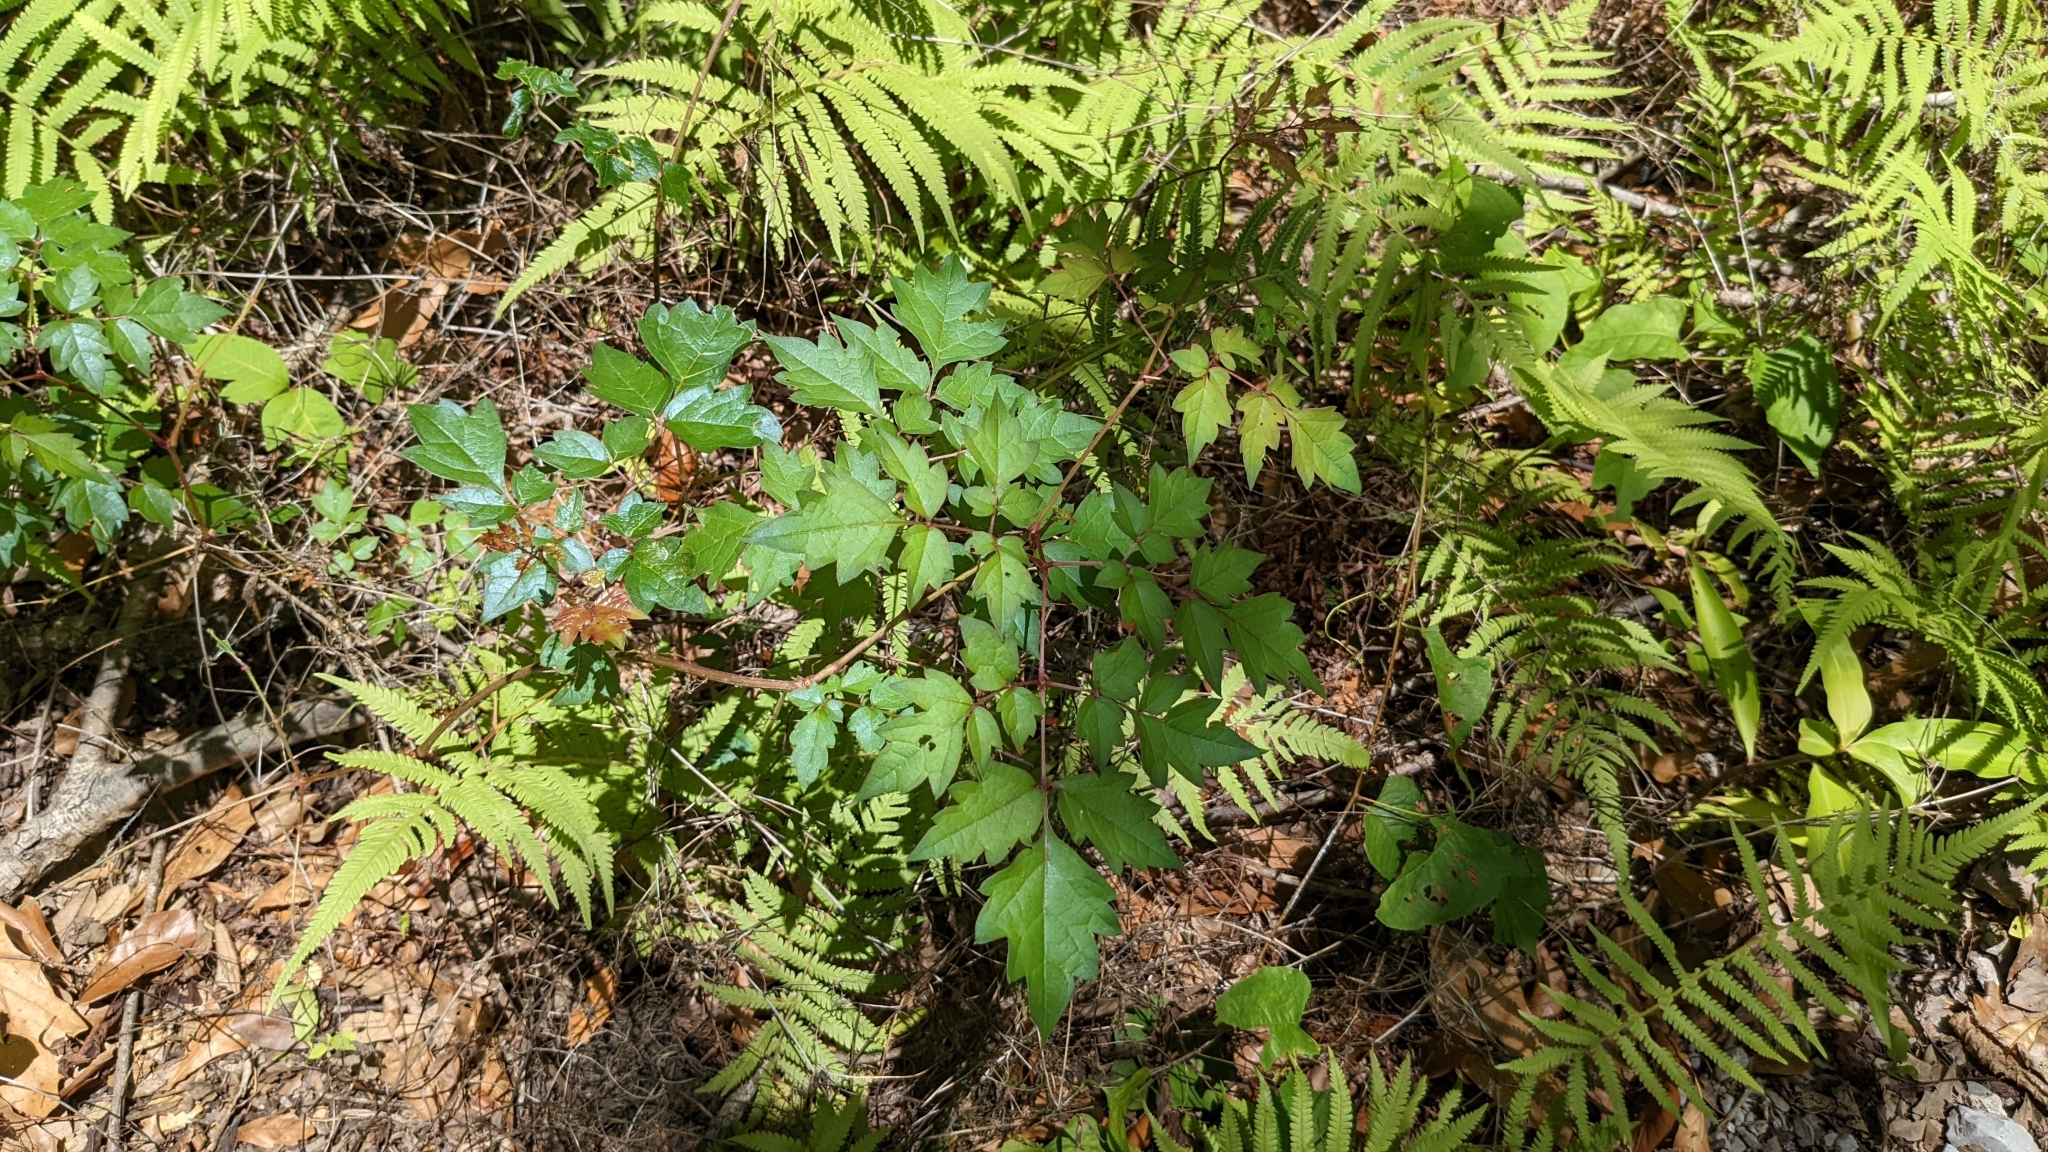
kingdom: Plantae
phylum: Tracheophyta
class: Magnoliopsida
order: Vitales
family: Vitaceae
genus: Nekemias
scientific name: Nekemias arborea
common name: Peppervine
